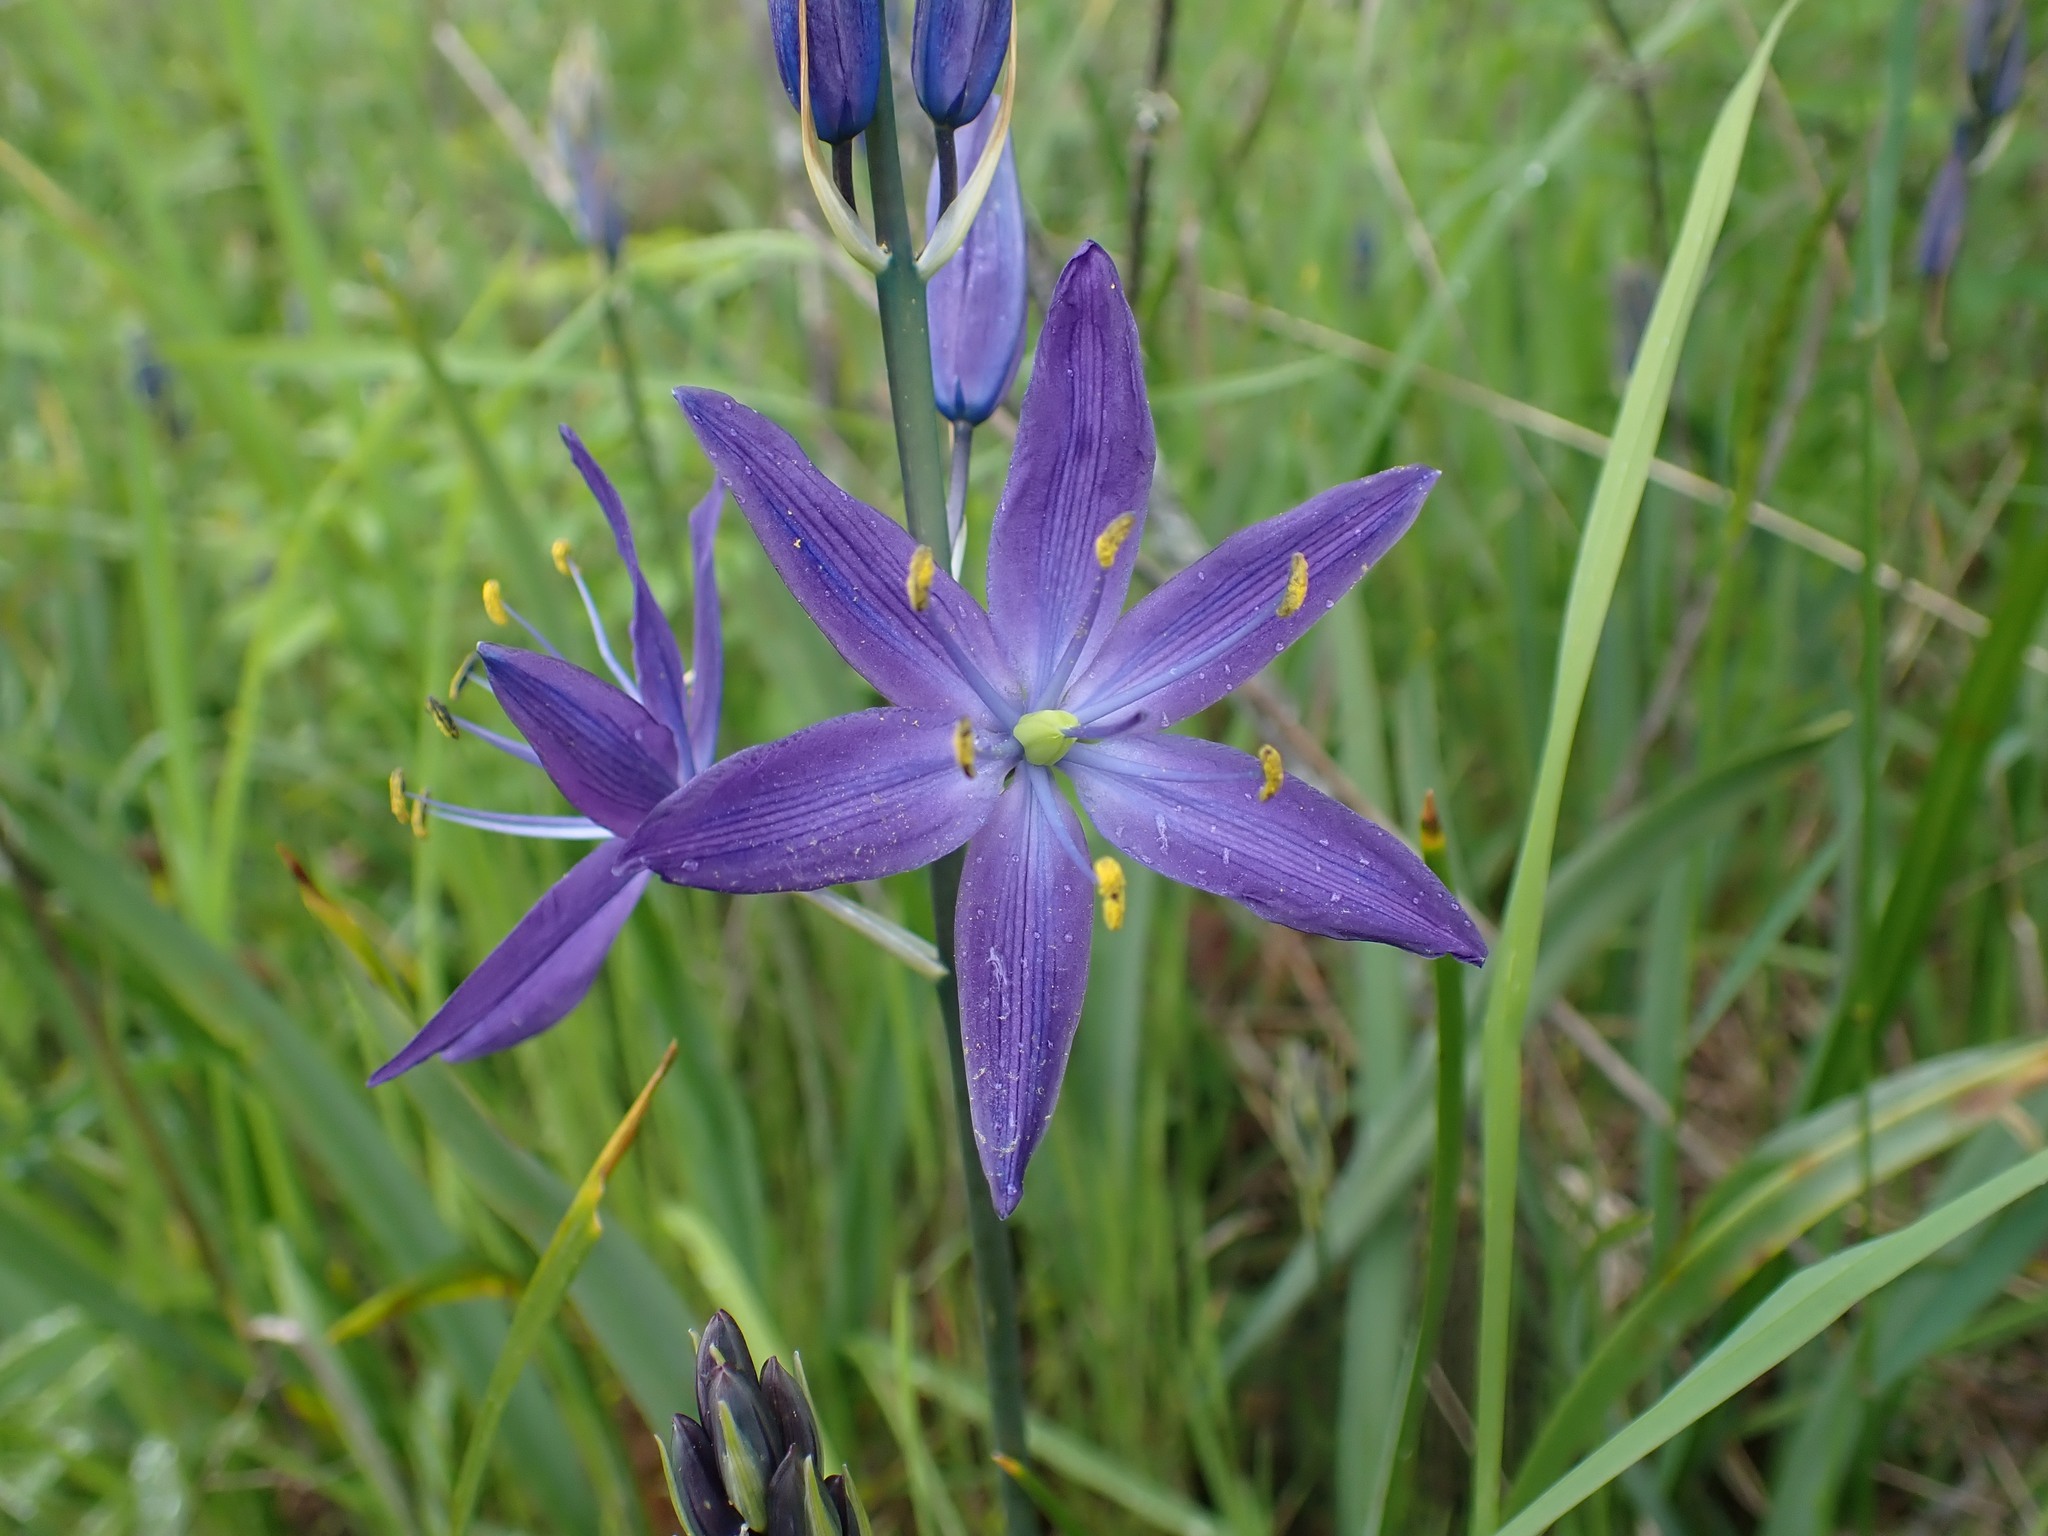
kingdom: Plantae
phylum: Tracheophyta
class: Liliopsida
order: Asparagales
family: Asparagaceae
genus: Camassia
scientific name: Camassia leichtlinii
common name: Leichtlin's camas
